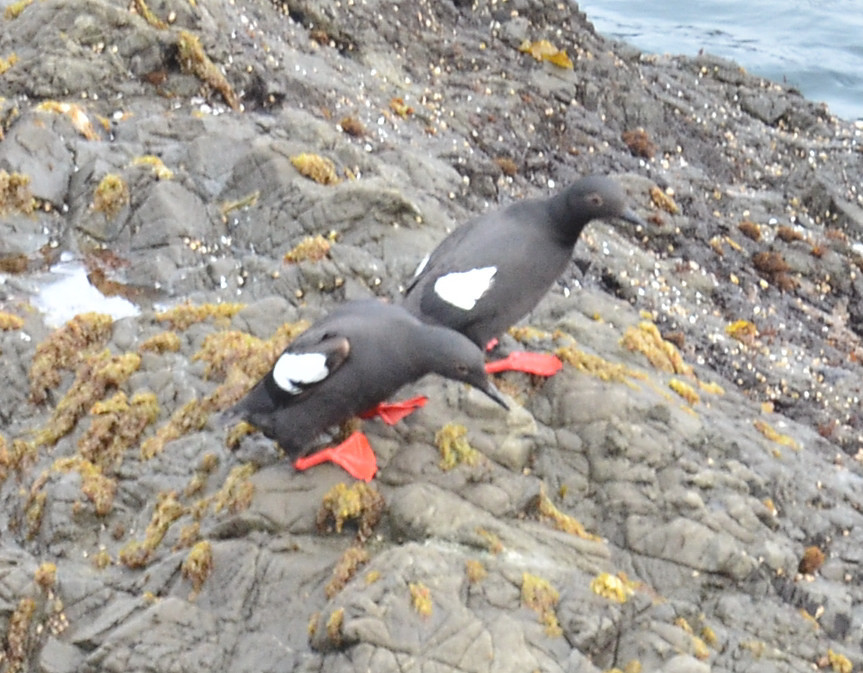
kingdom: Animalia
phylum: Chordata
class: Aves
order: Charadriiformes
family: Alcidae
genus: Cepphus
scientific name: Cepphus columba
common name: Pigeon guillemot
